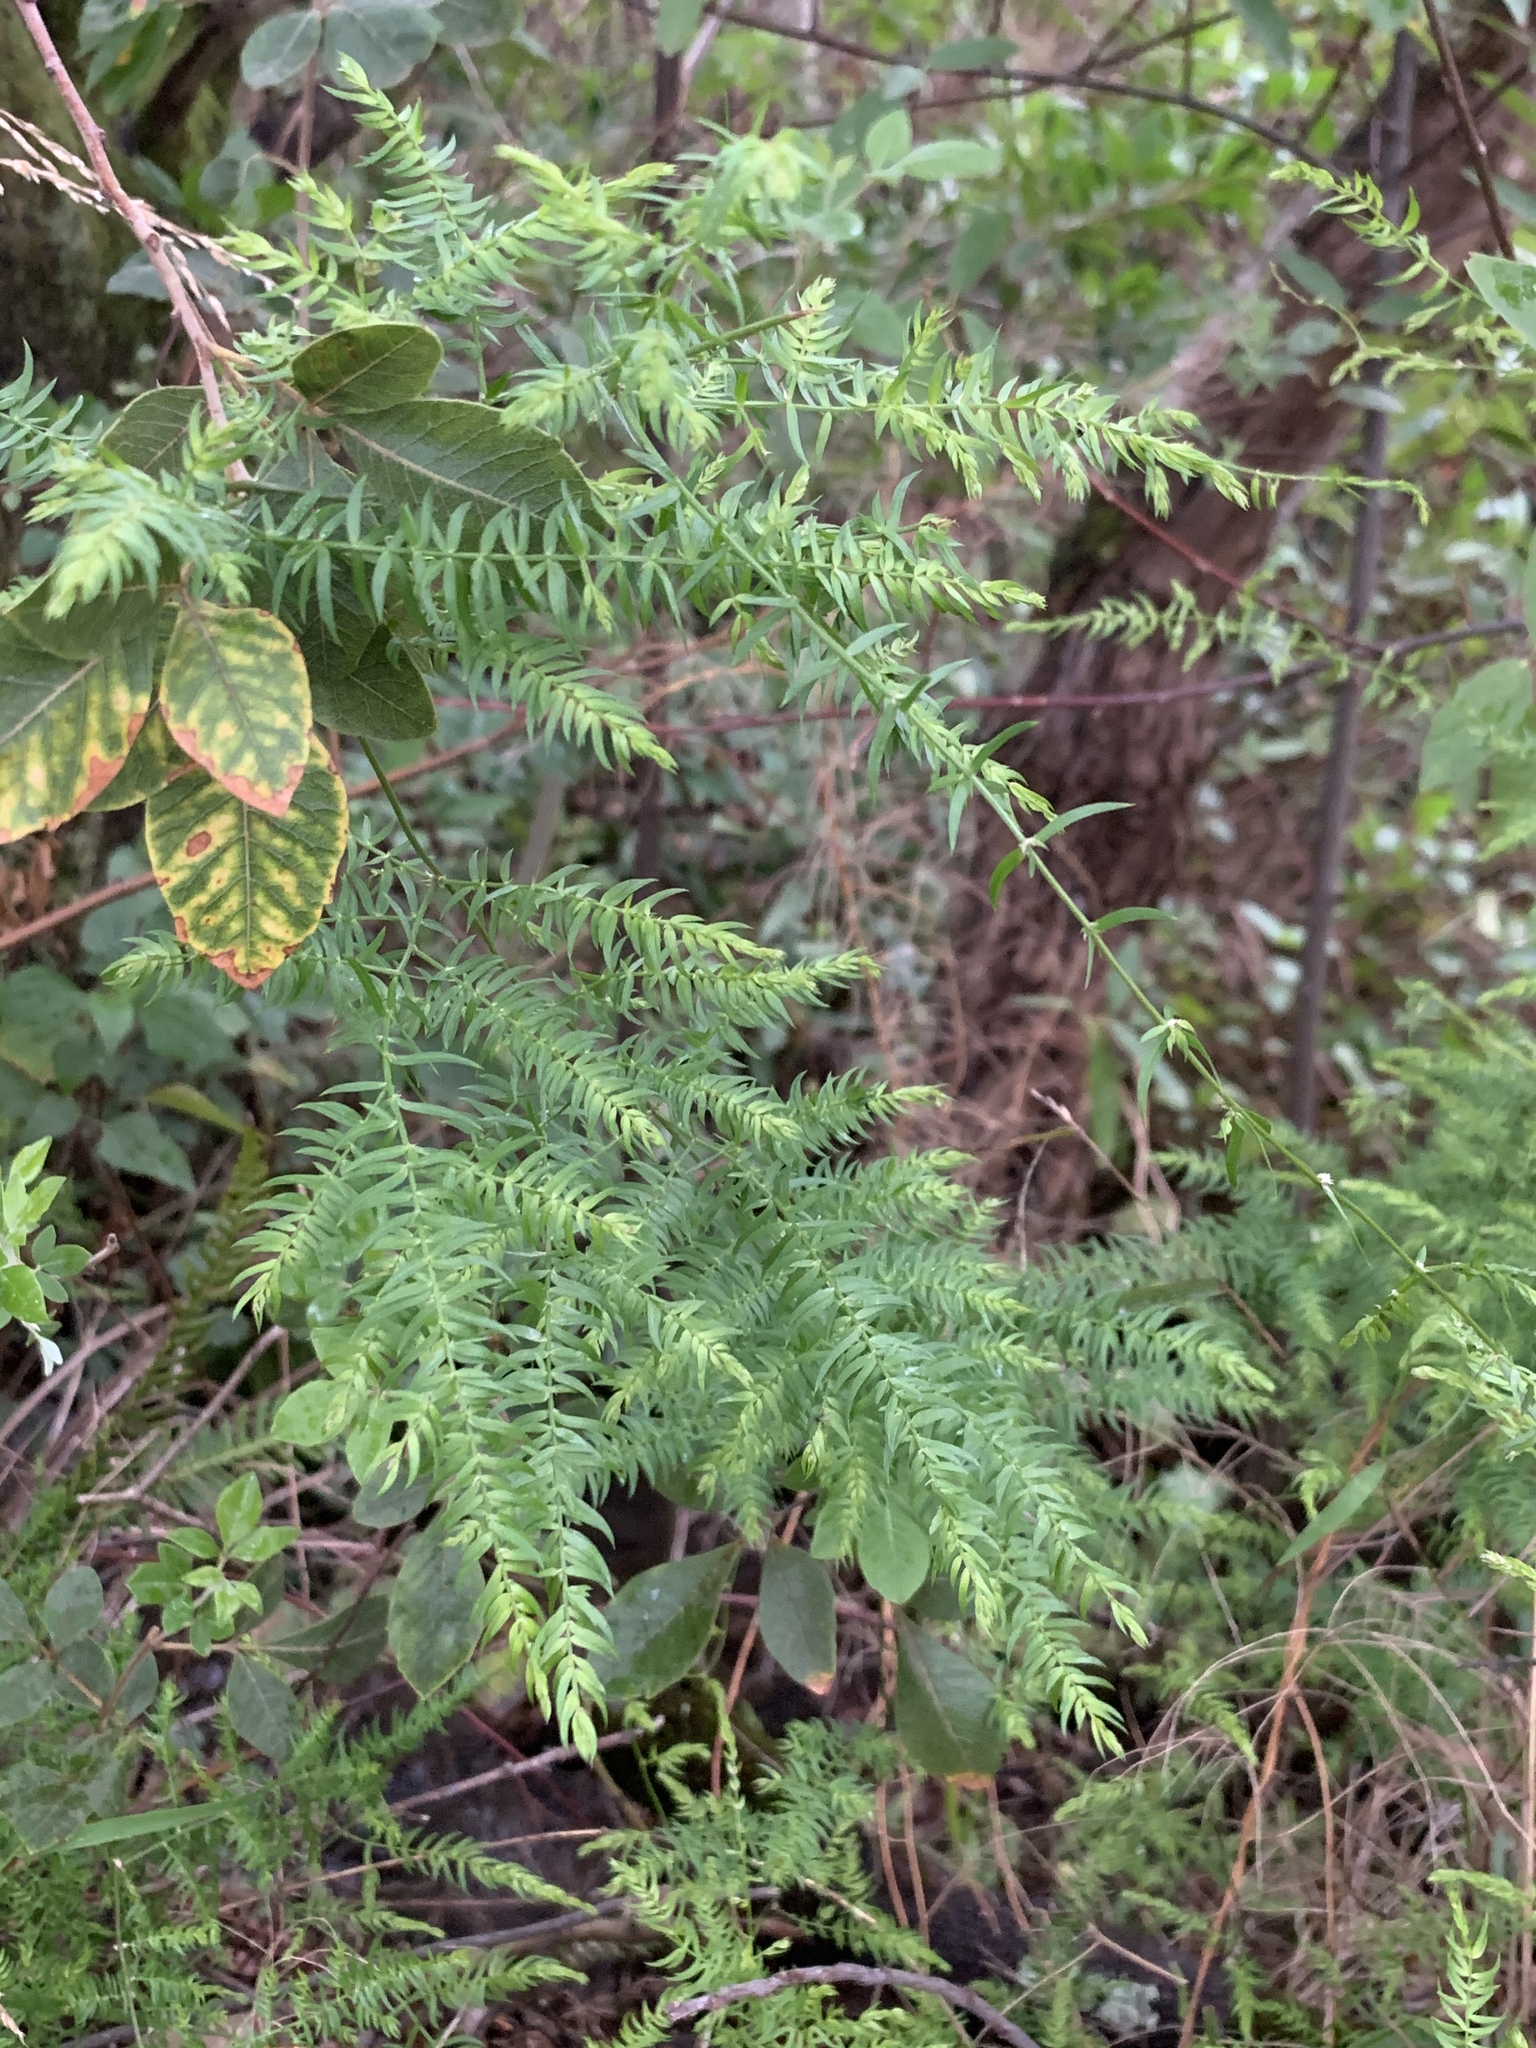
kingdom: Plantae
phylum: Tracheophyta
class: Liliopsida
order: Asparagales
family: Asparagaceae
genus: Asparagus
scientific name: Asparagus scandens
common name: Asparagus-fern
